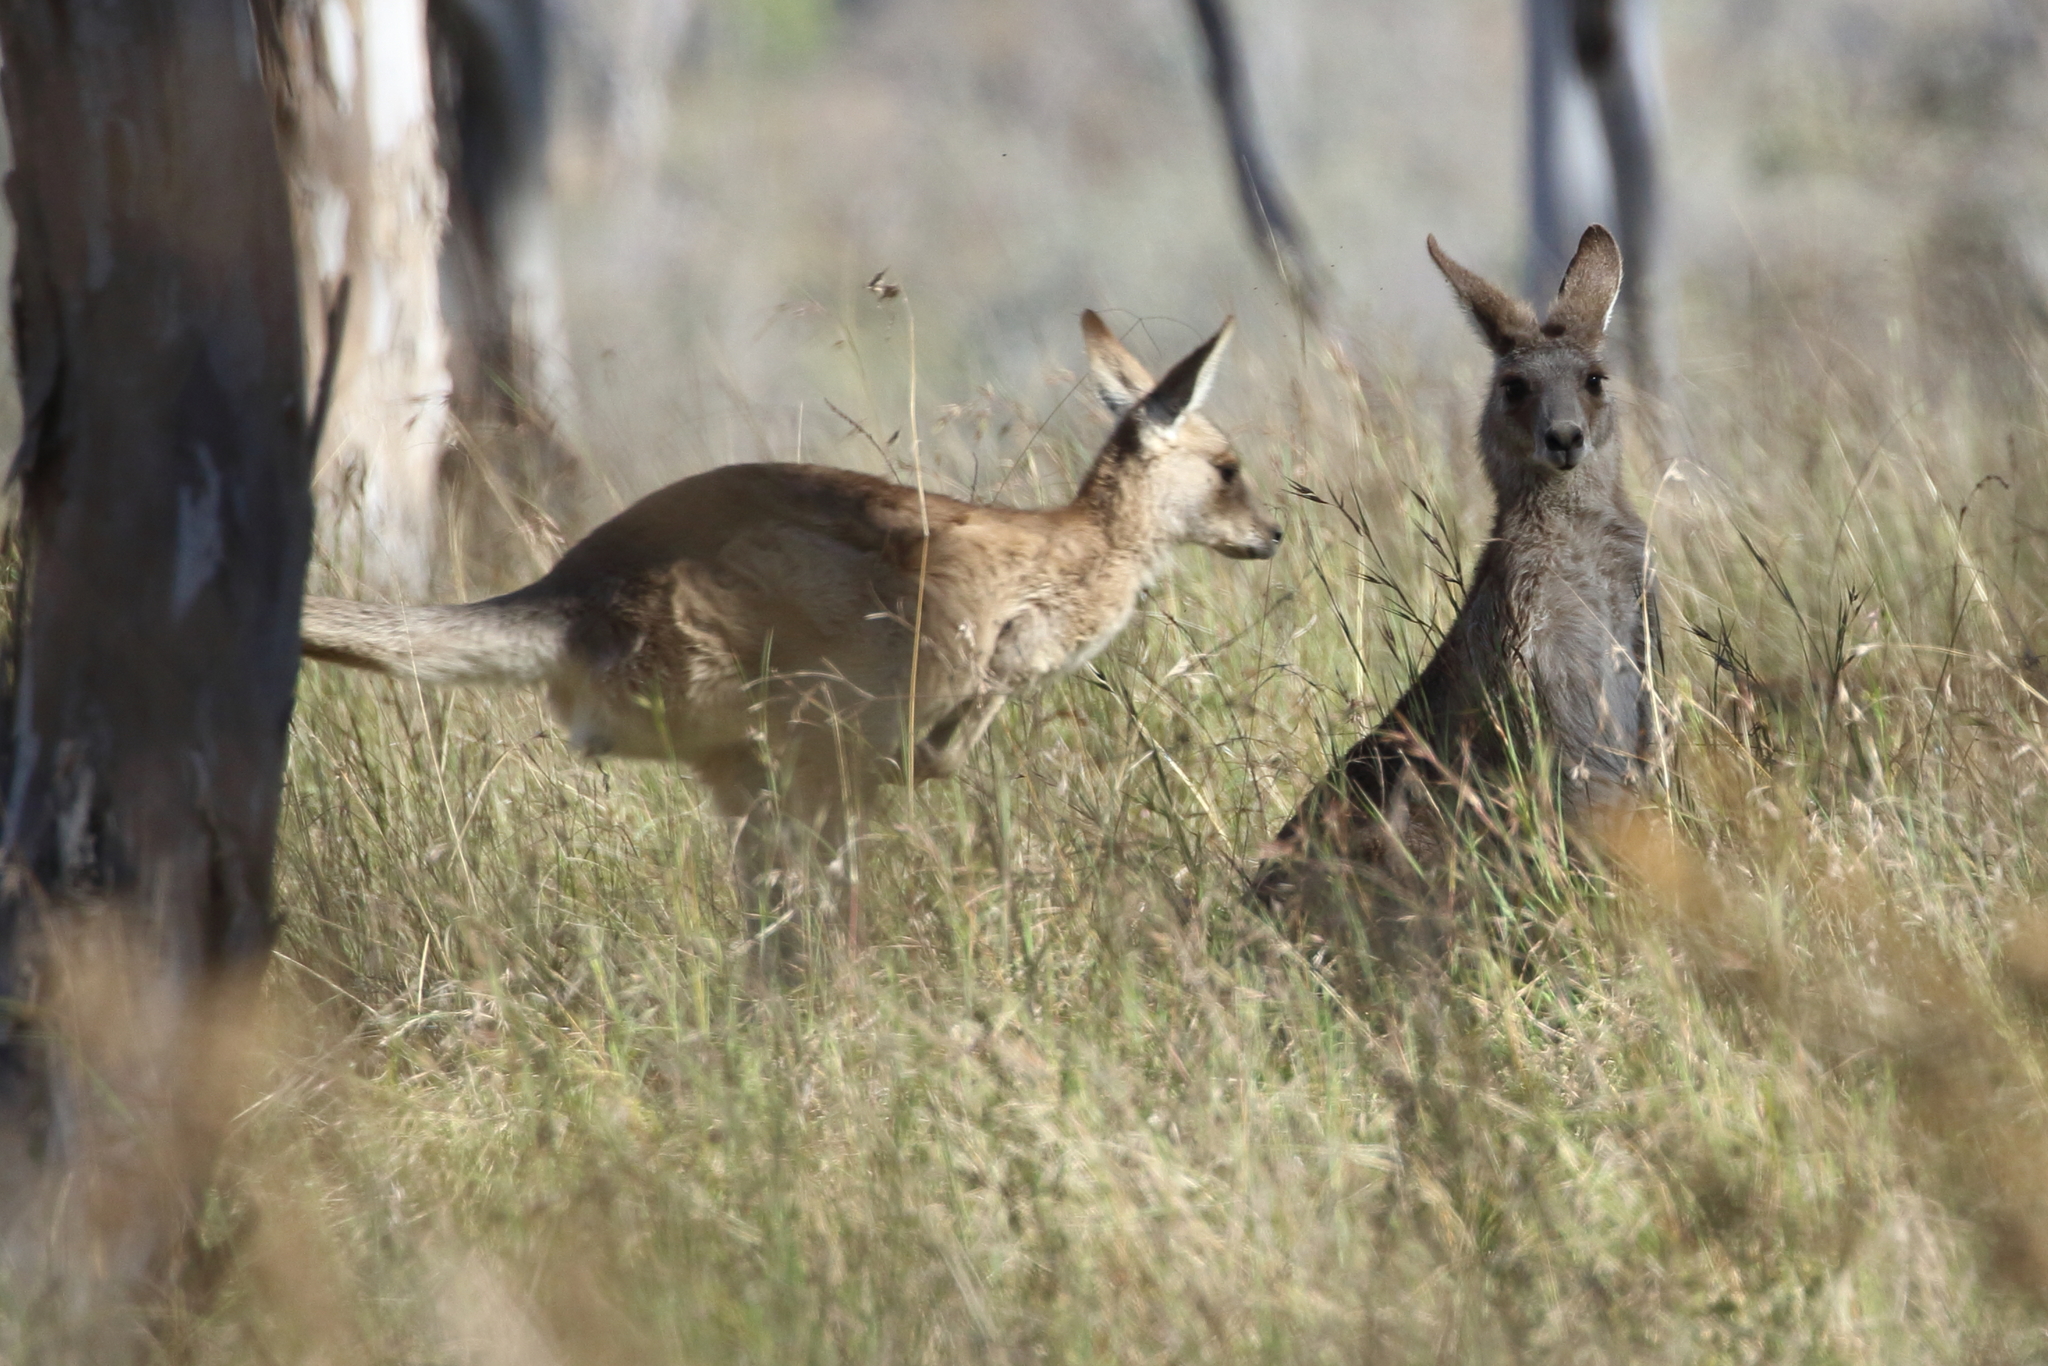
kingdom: Animalia
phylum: Chordata
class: Mammalia
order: Diprotodontia
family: Macropodidae
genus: Macropus
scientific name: Macropus giganteus
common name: Eastern grey kangaroo
